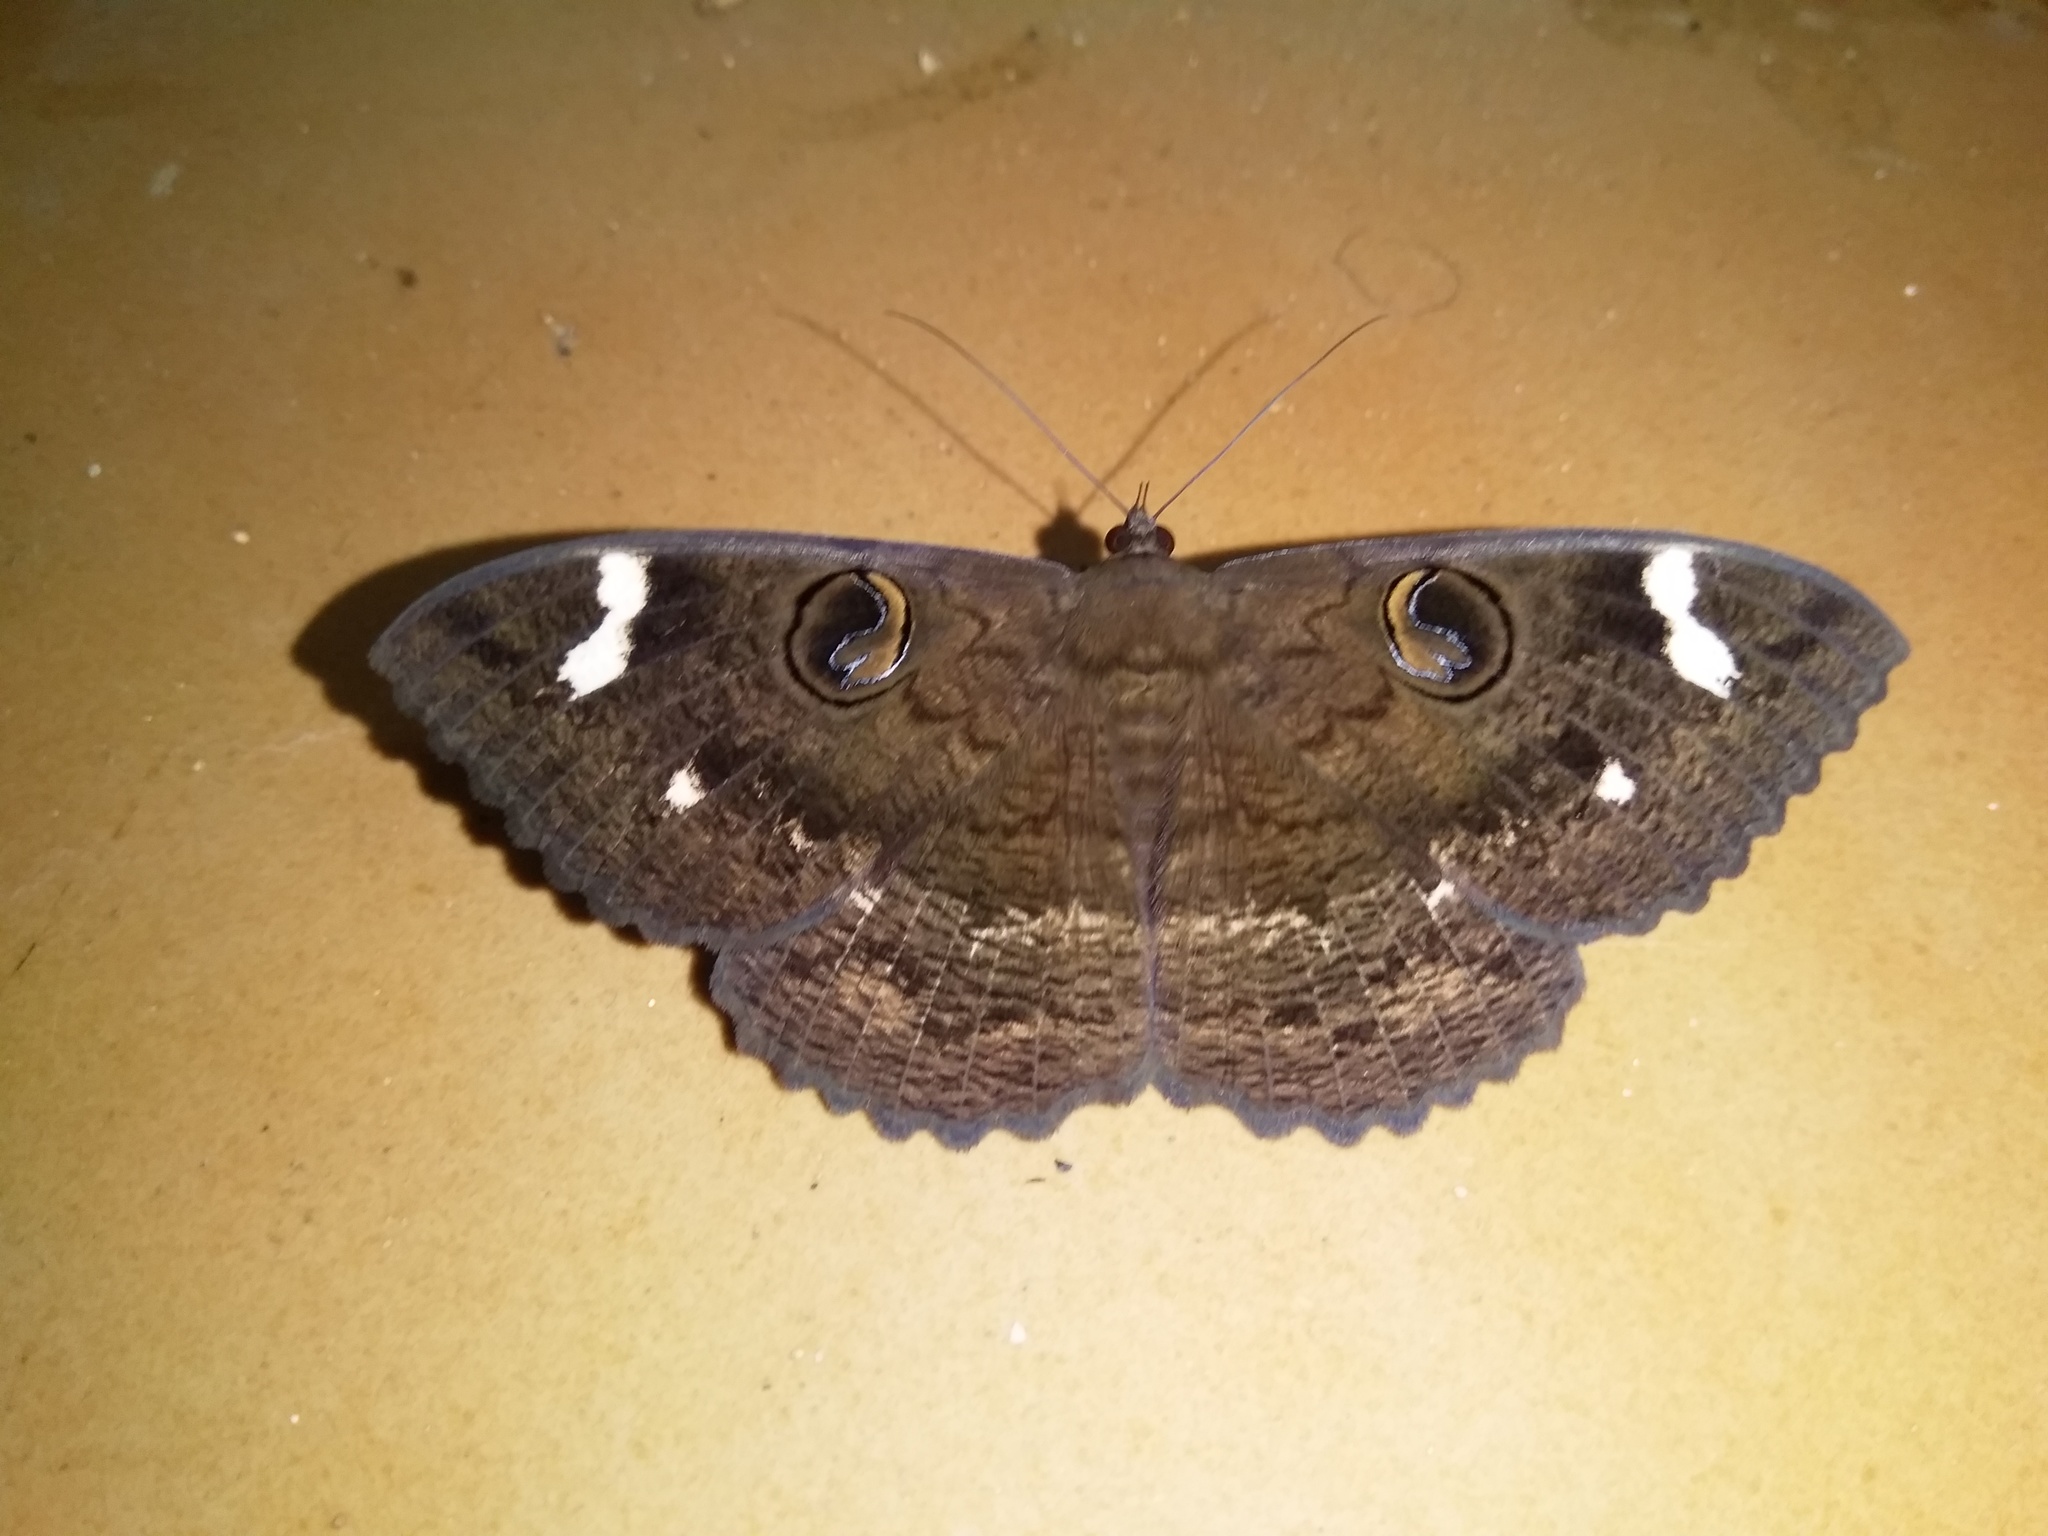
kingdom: Animalia
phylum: Arthropoda
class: Insecta
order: Lepidoptera
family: Erebidae
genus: Erebus
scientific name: Erebus hieroglyphica
